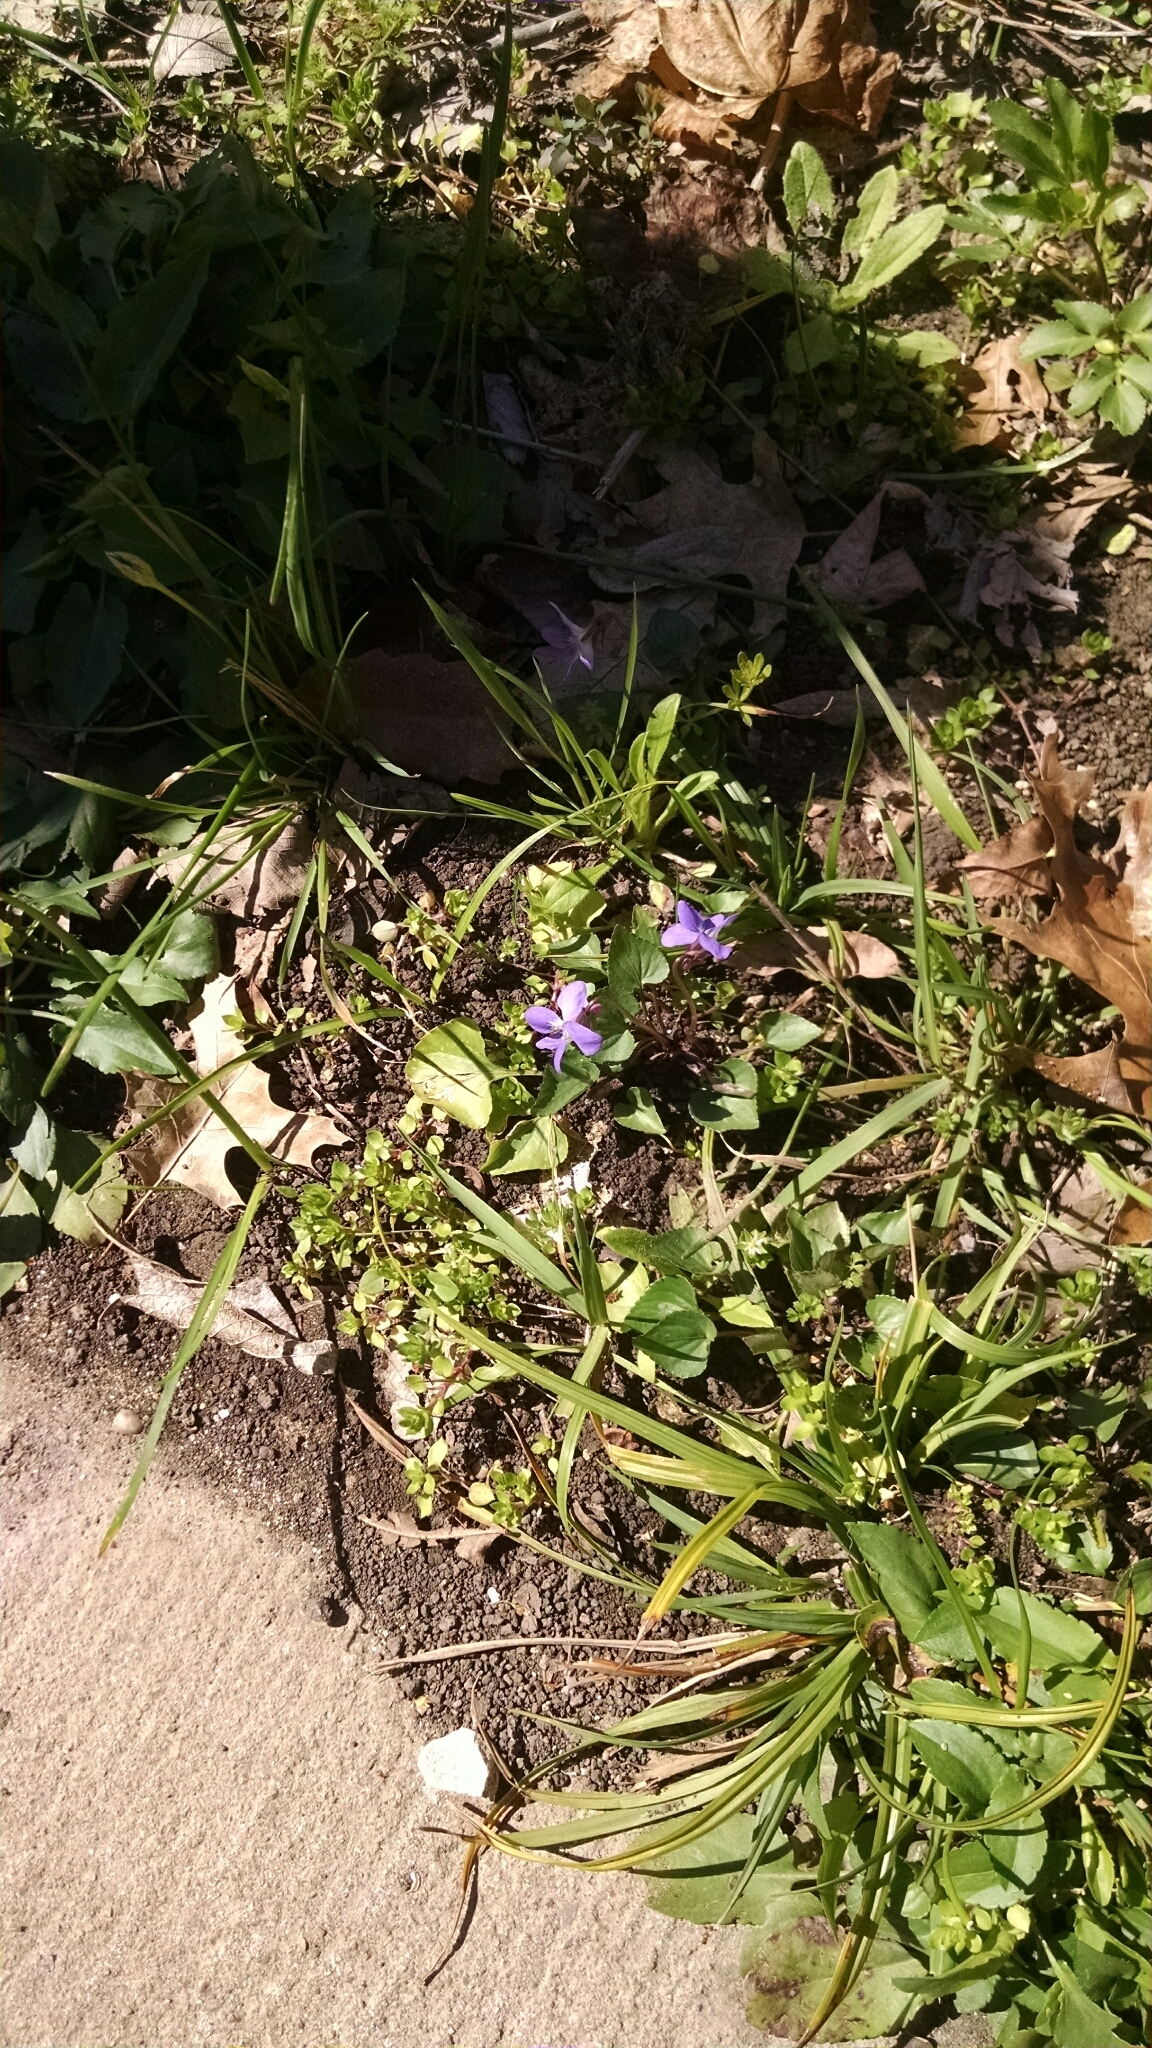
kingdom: Plantae
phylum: Tracheophyta
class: Magnoliopsida
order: Malpighiales
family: Violaceae
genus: Viola
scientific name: Viola missouriensis
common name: Missouri violet
